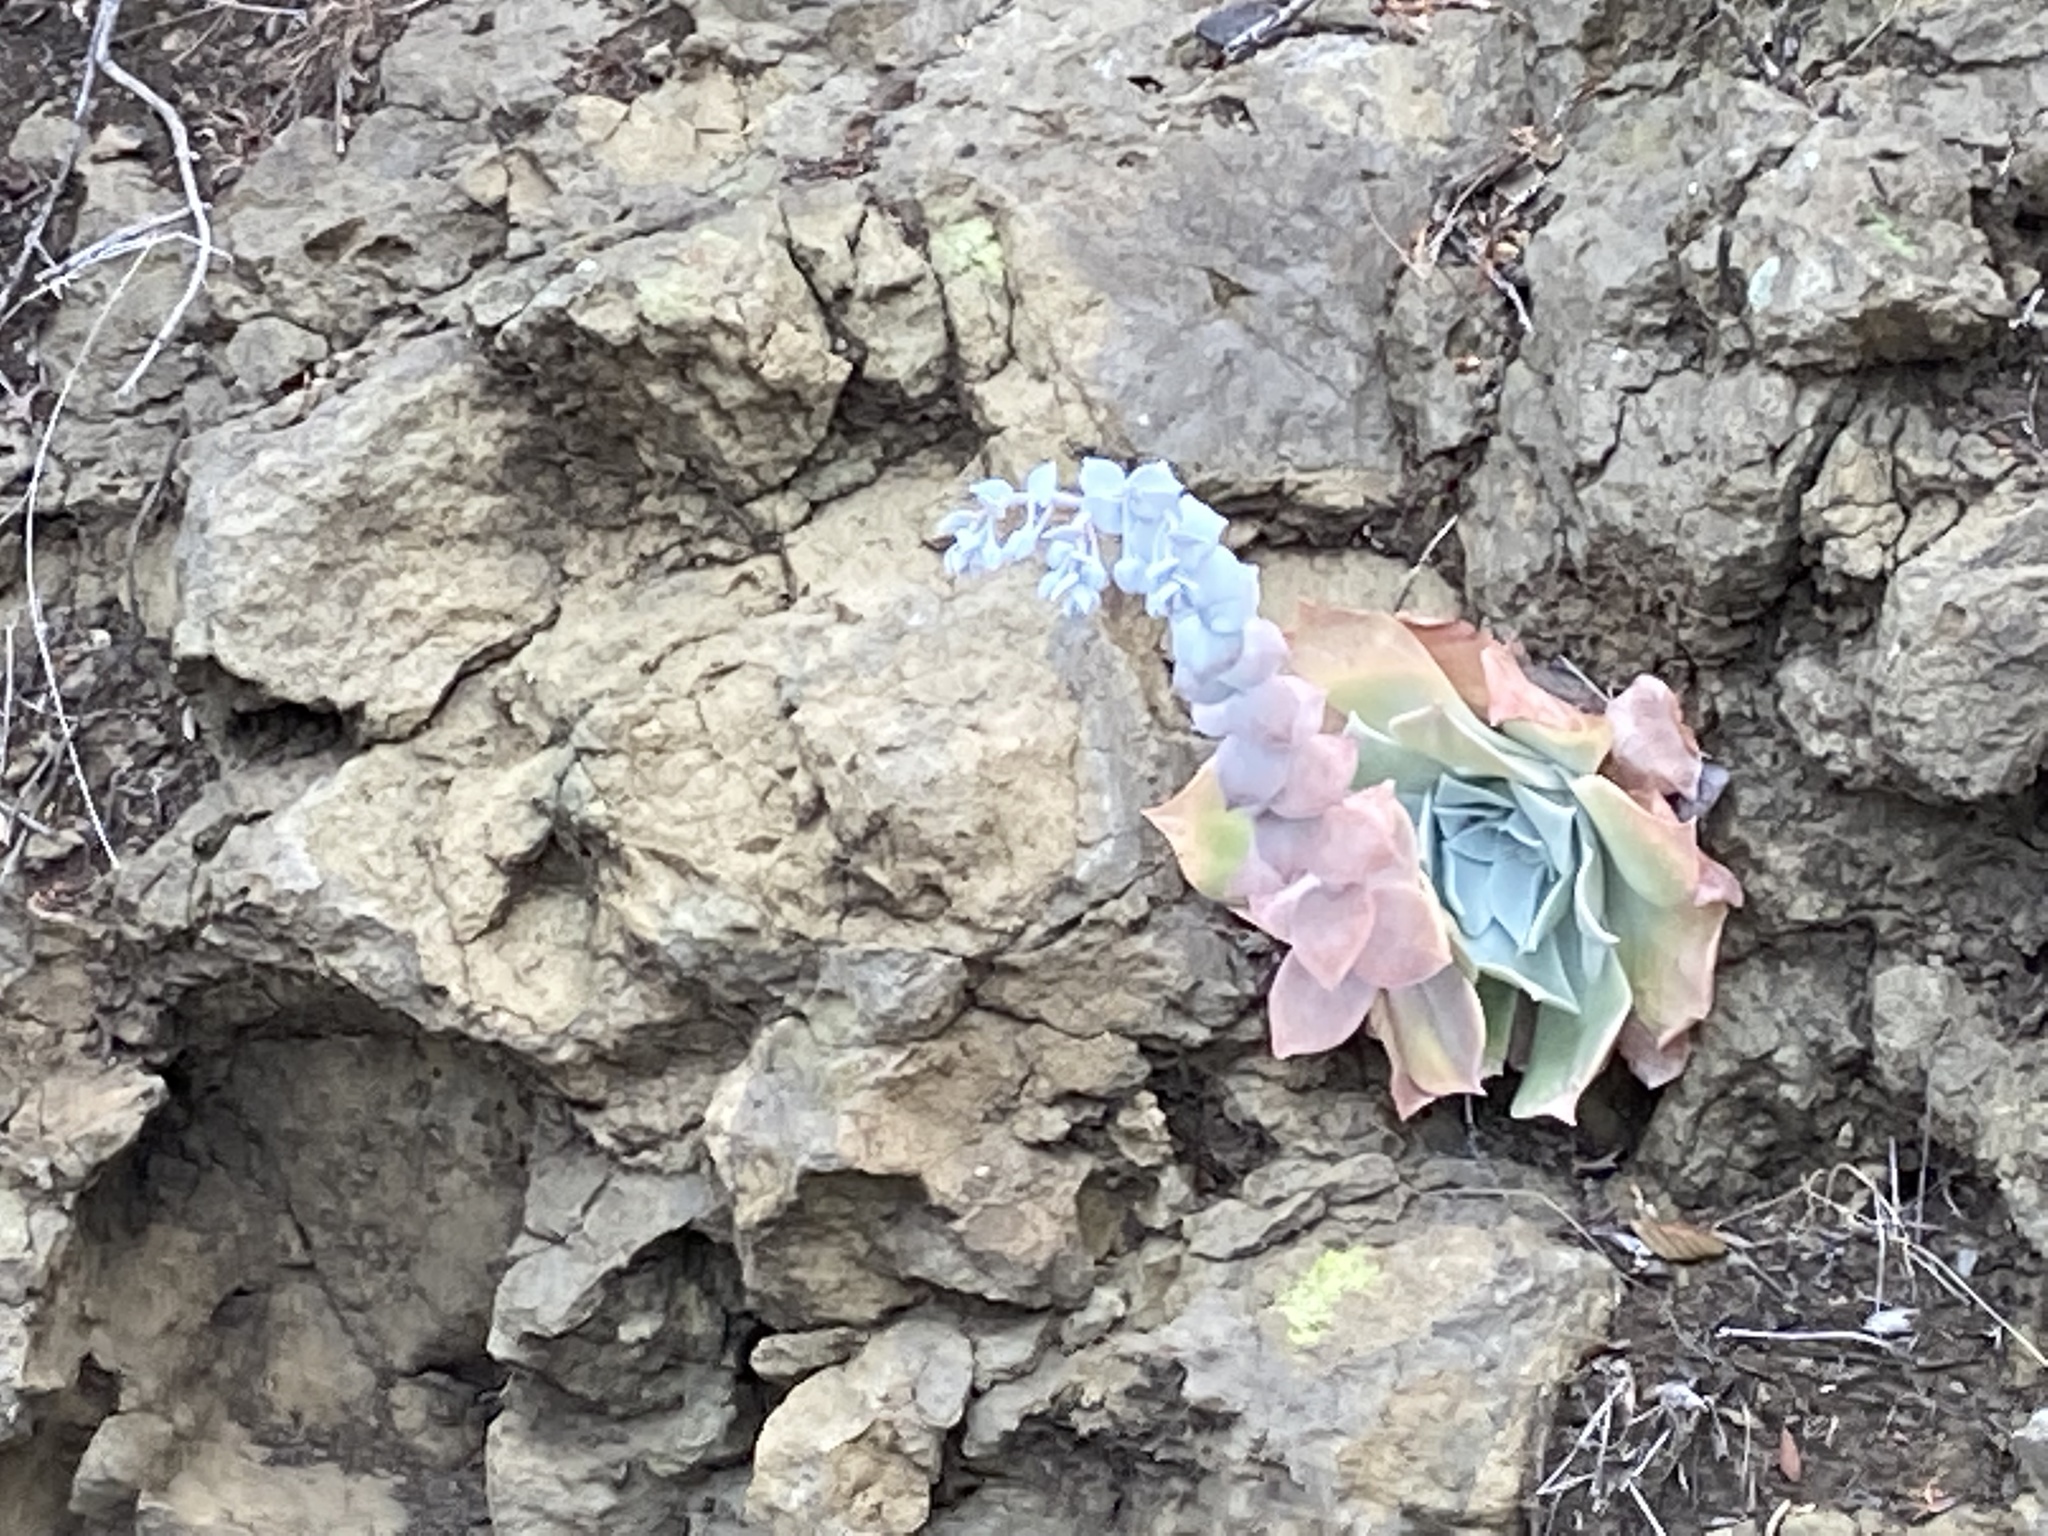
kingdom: Plantae
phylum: Tracheophyta
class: Magnoliopsida
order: Saxifragales
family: Crassulaceae
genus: Dudleya
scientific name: Dudleya pulverulenta
